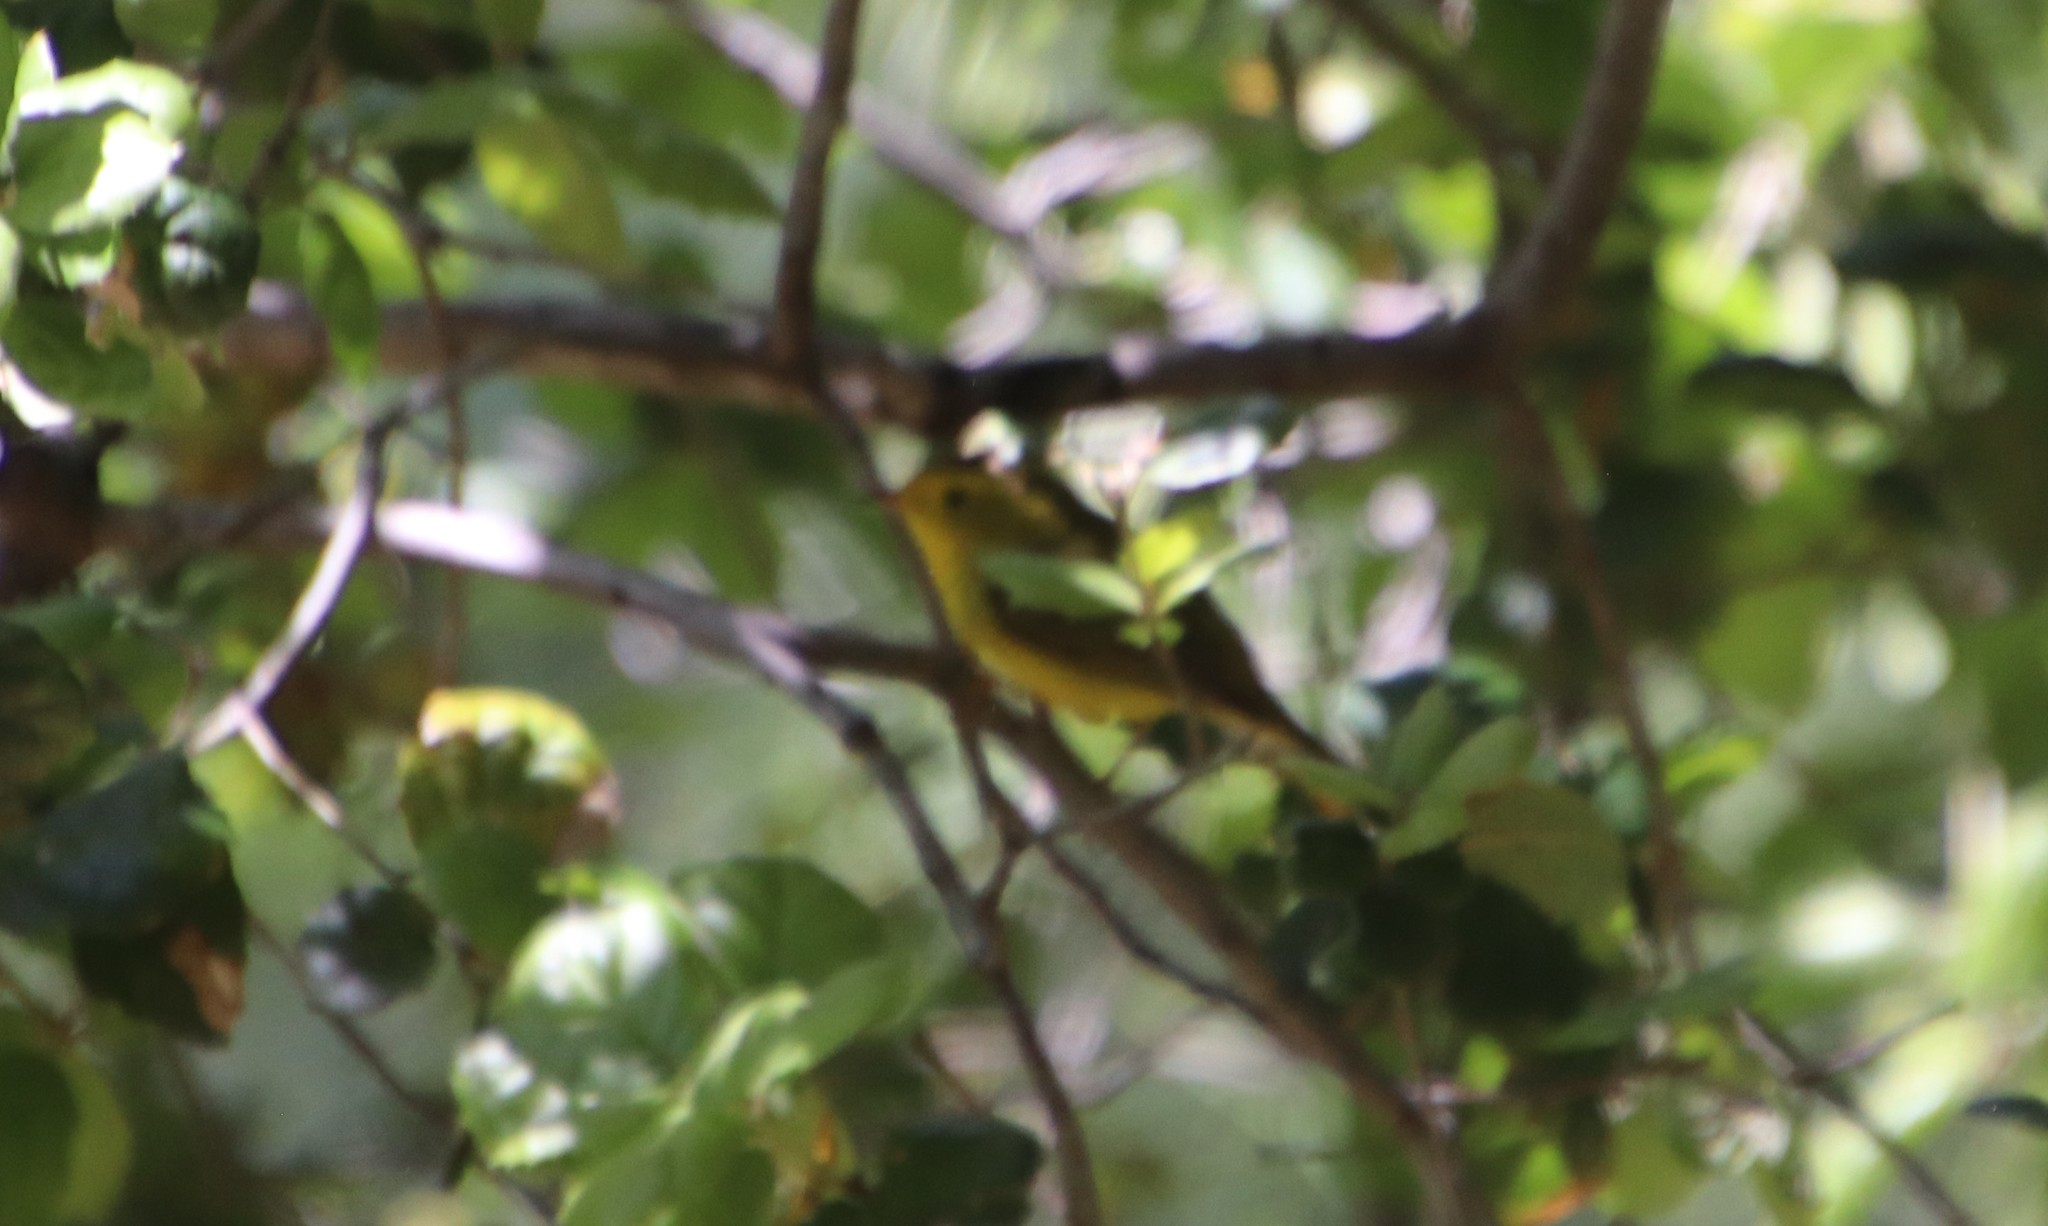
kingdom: Animalia
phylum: Chordata
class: Aves
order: Passeriformes
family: Parulidae
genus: Cardellina
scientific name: Cardellina pusilla
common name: Wilson's warbler
